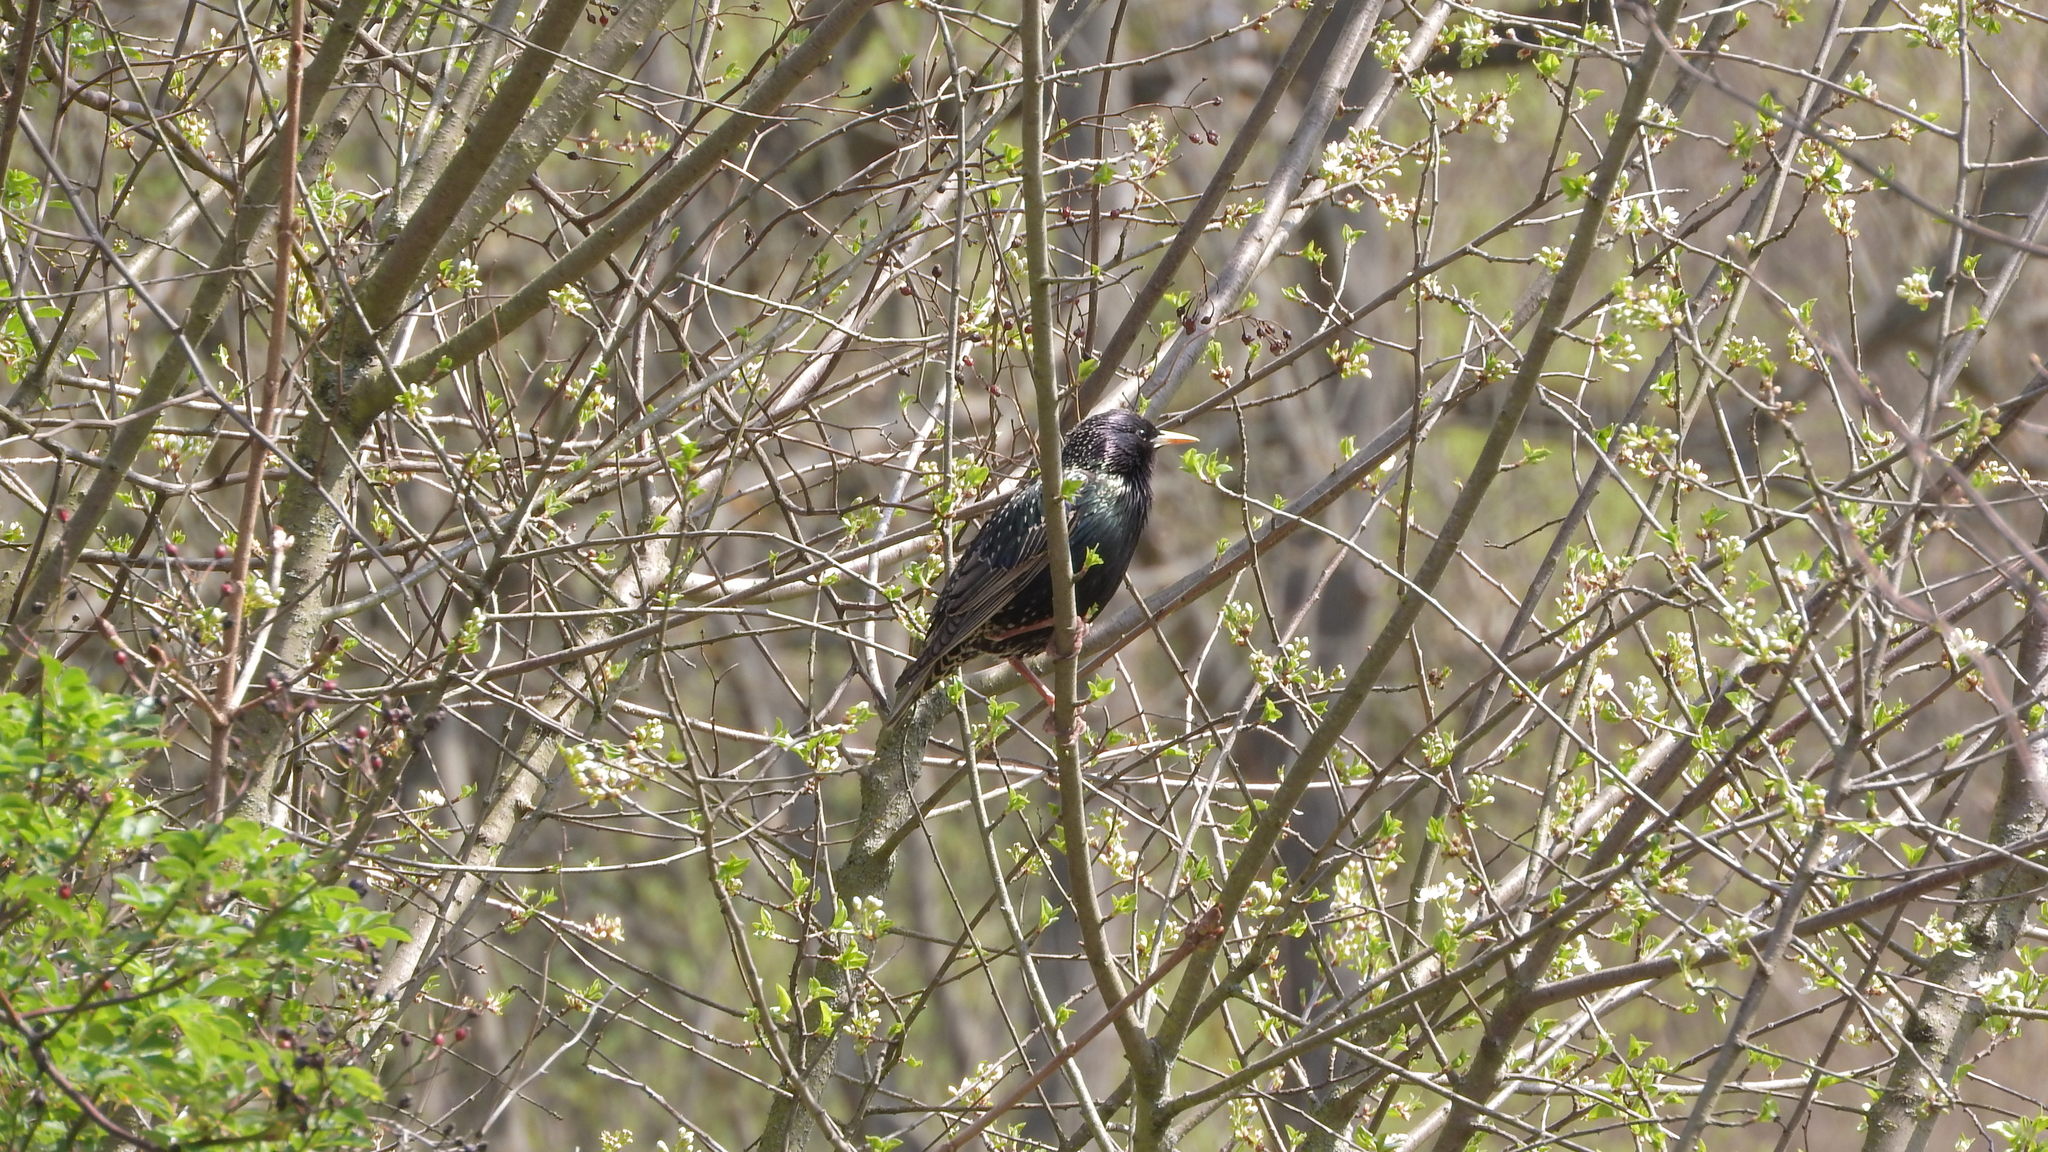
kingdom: Animalia
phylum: Chordata
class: Aves
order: Passeriformes
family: Sturnidae
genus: Sturnus
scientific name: Sturnus vulgaris
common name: Common starling
